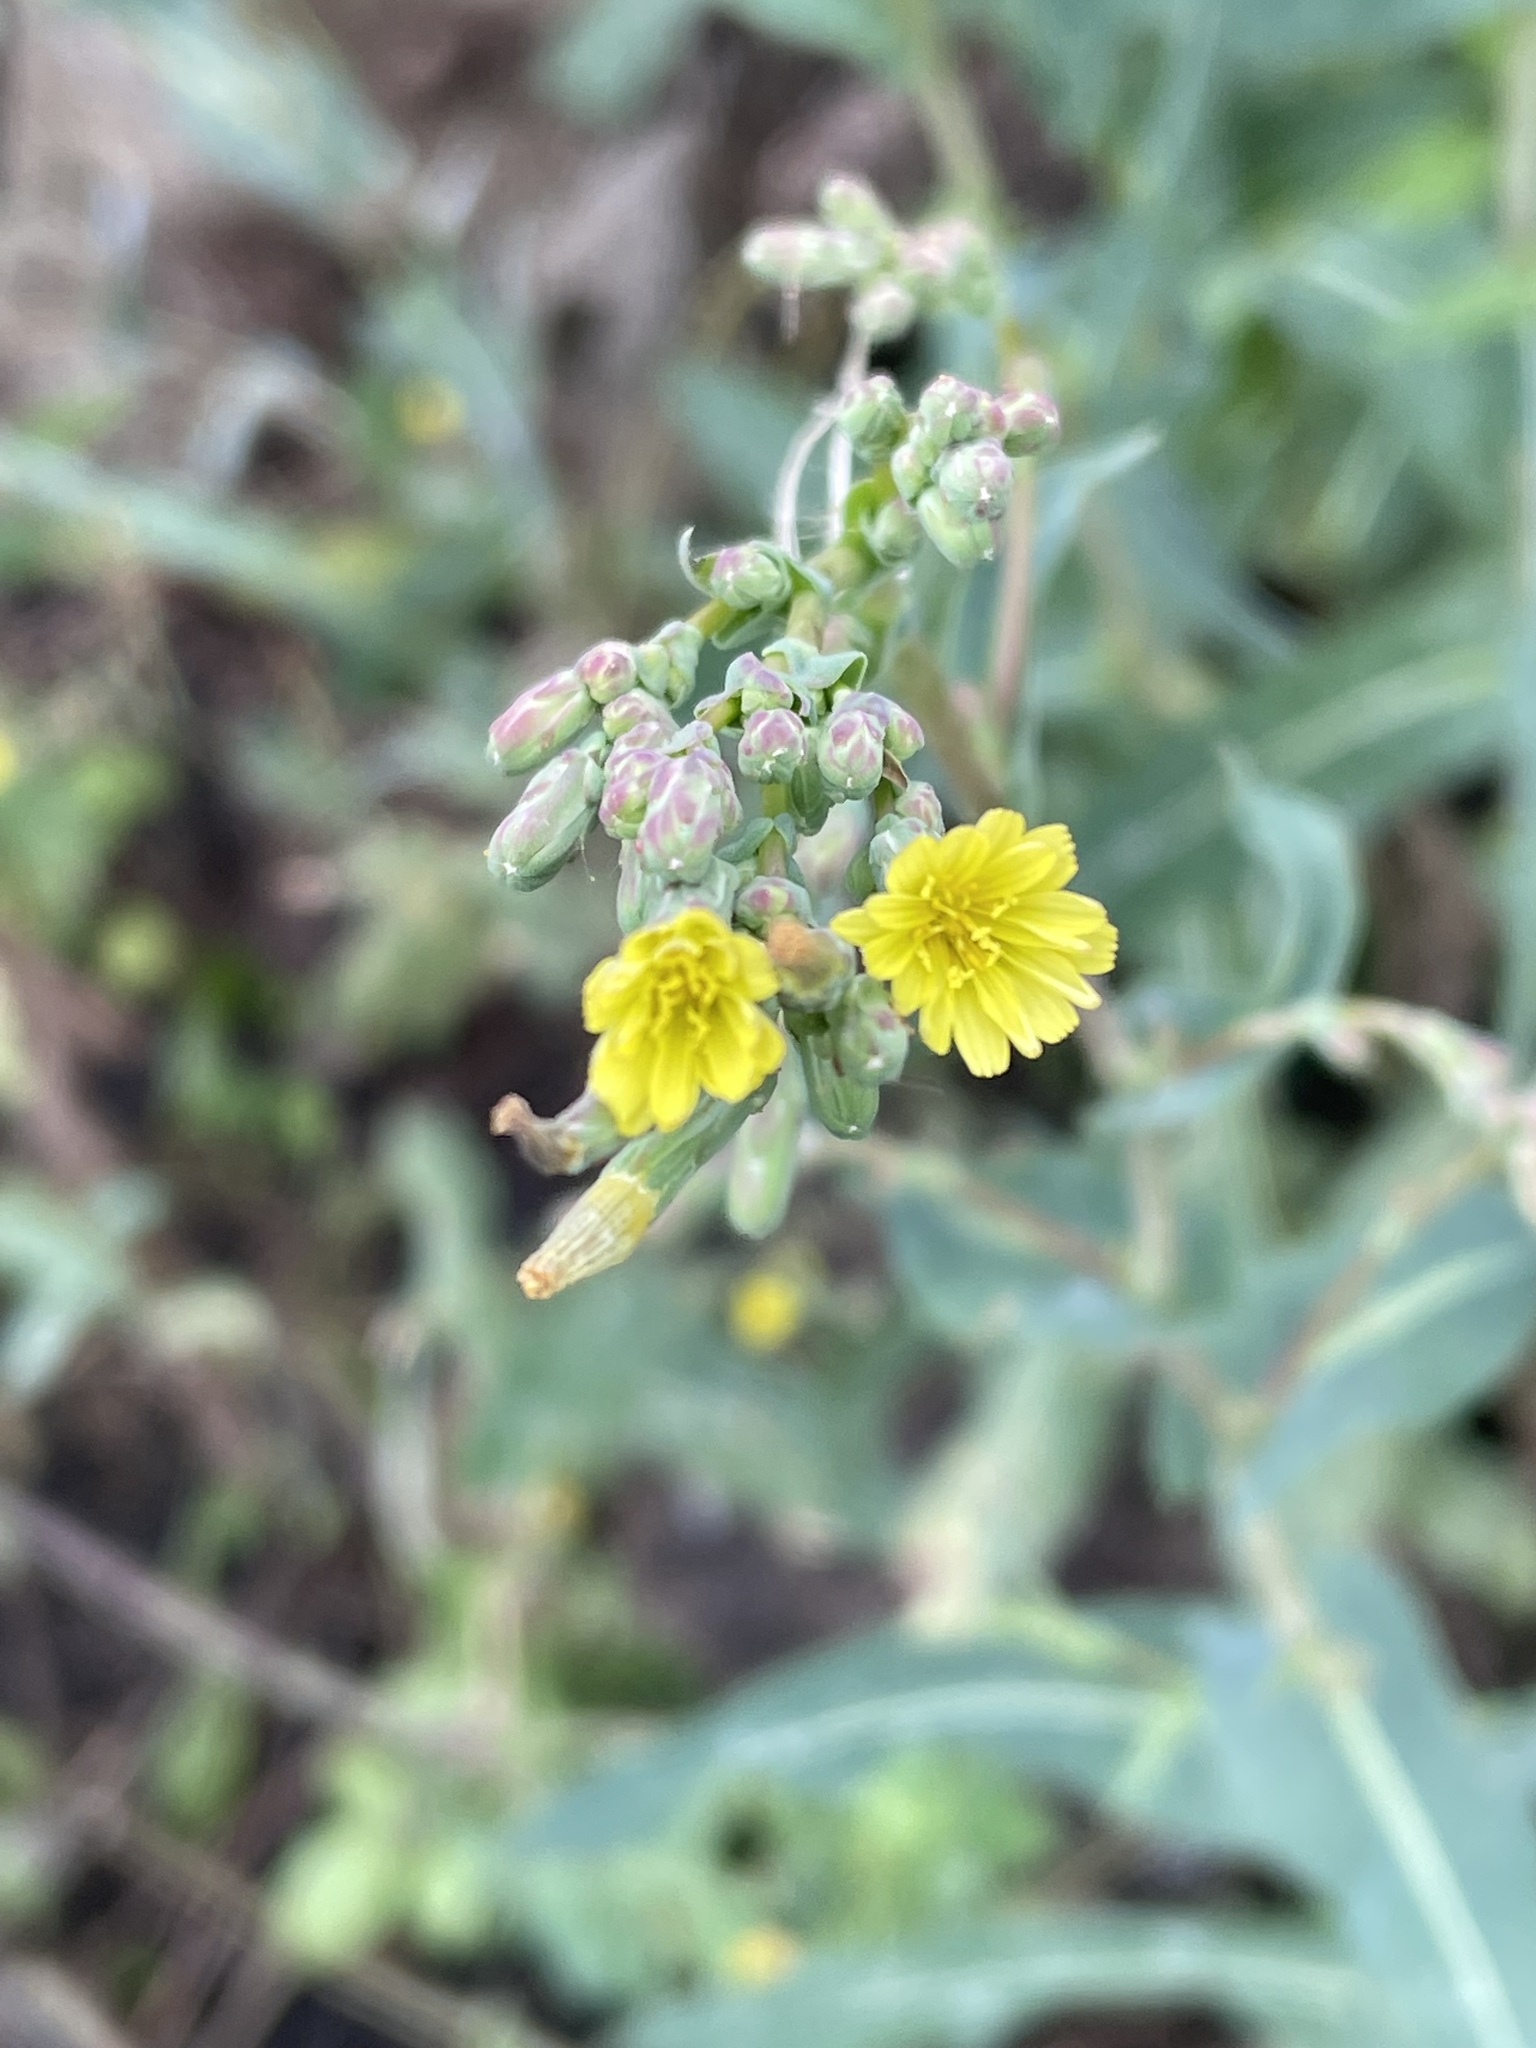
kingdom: Plantae
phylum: Tracheophyta
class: Magnoliopsida
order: Asterales
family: Asteraceae
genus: Lactuca
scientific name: Lactuca serriola
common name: Prickly lettuce
